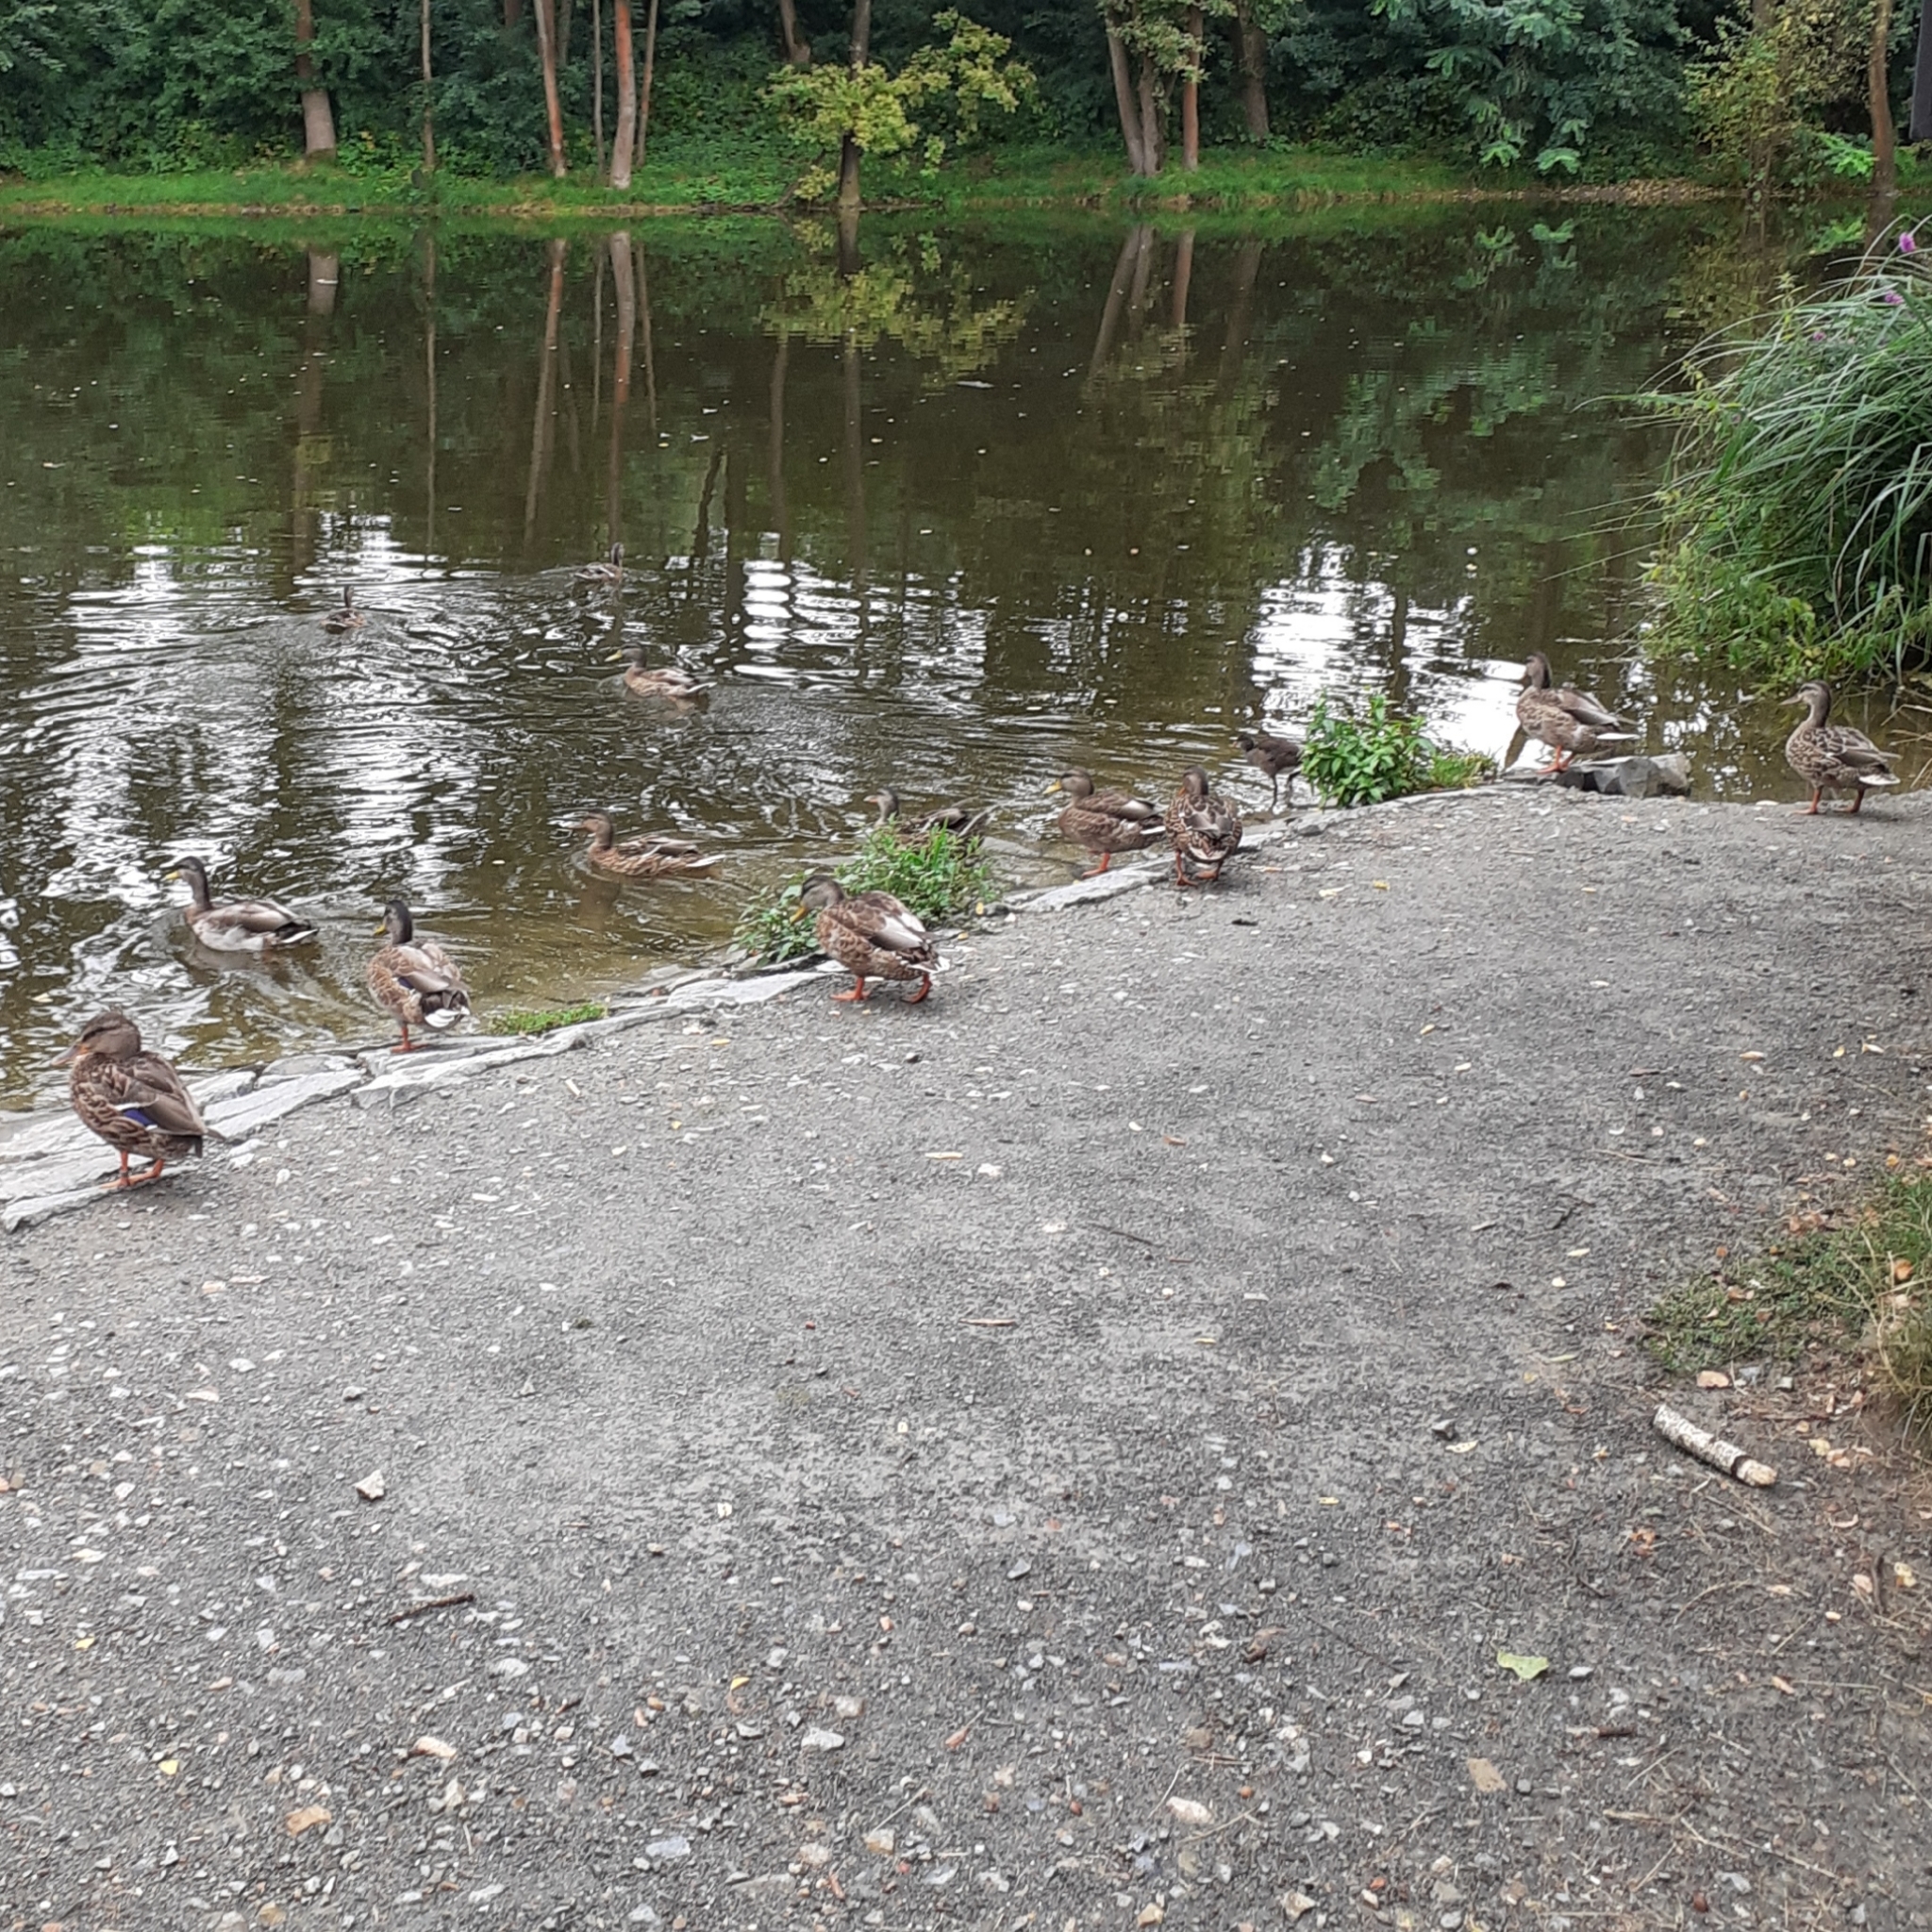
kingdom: Animalia
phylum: Chordata
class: Aves
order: Anseriformes
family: Anatidae
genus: Anas
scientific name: Anas platyrhynchos
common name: Mallard
